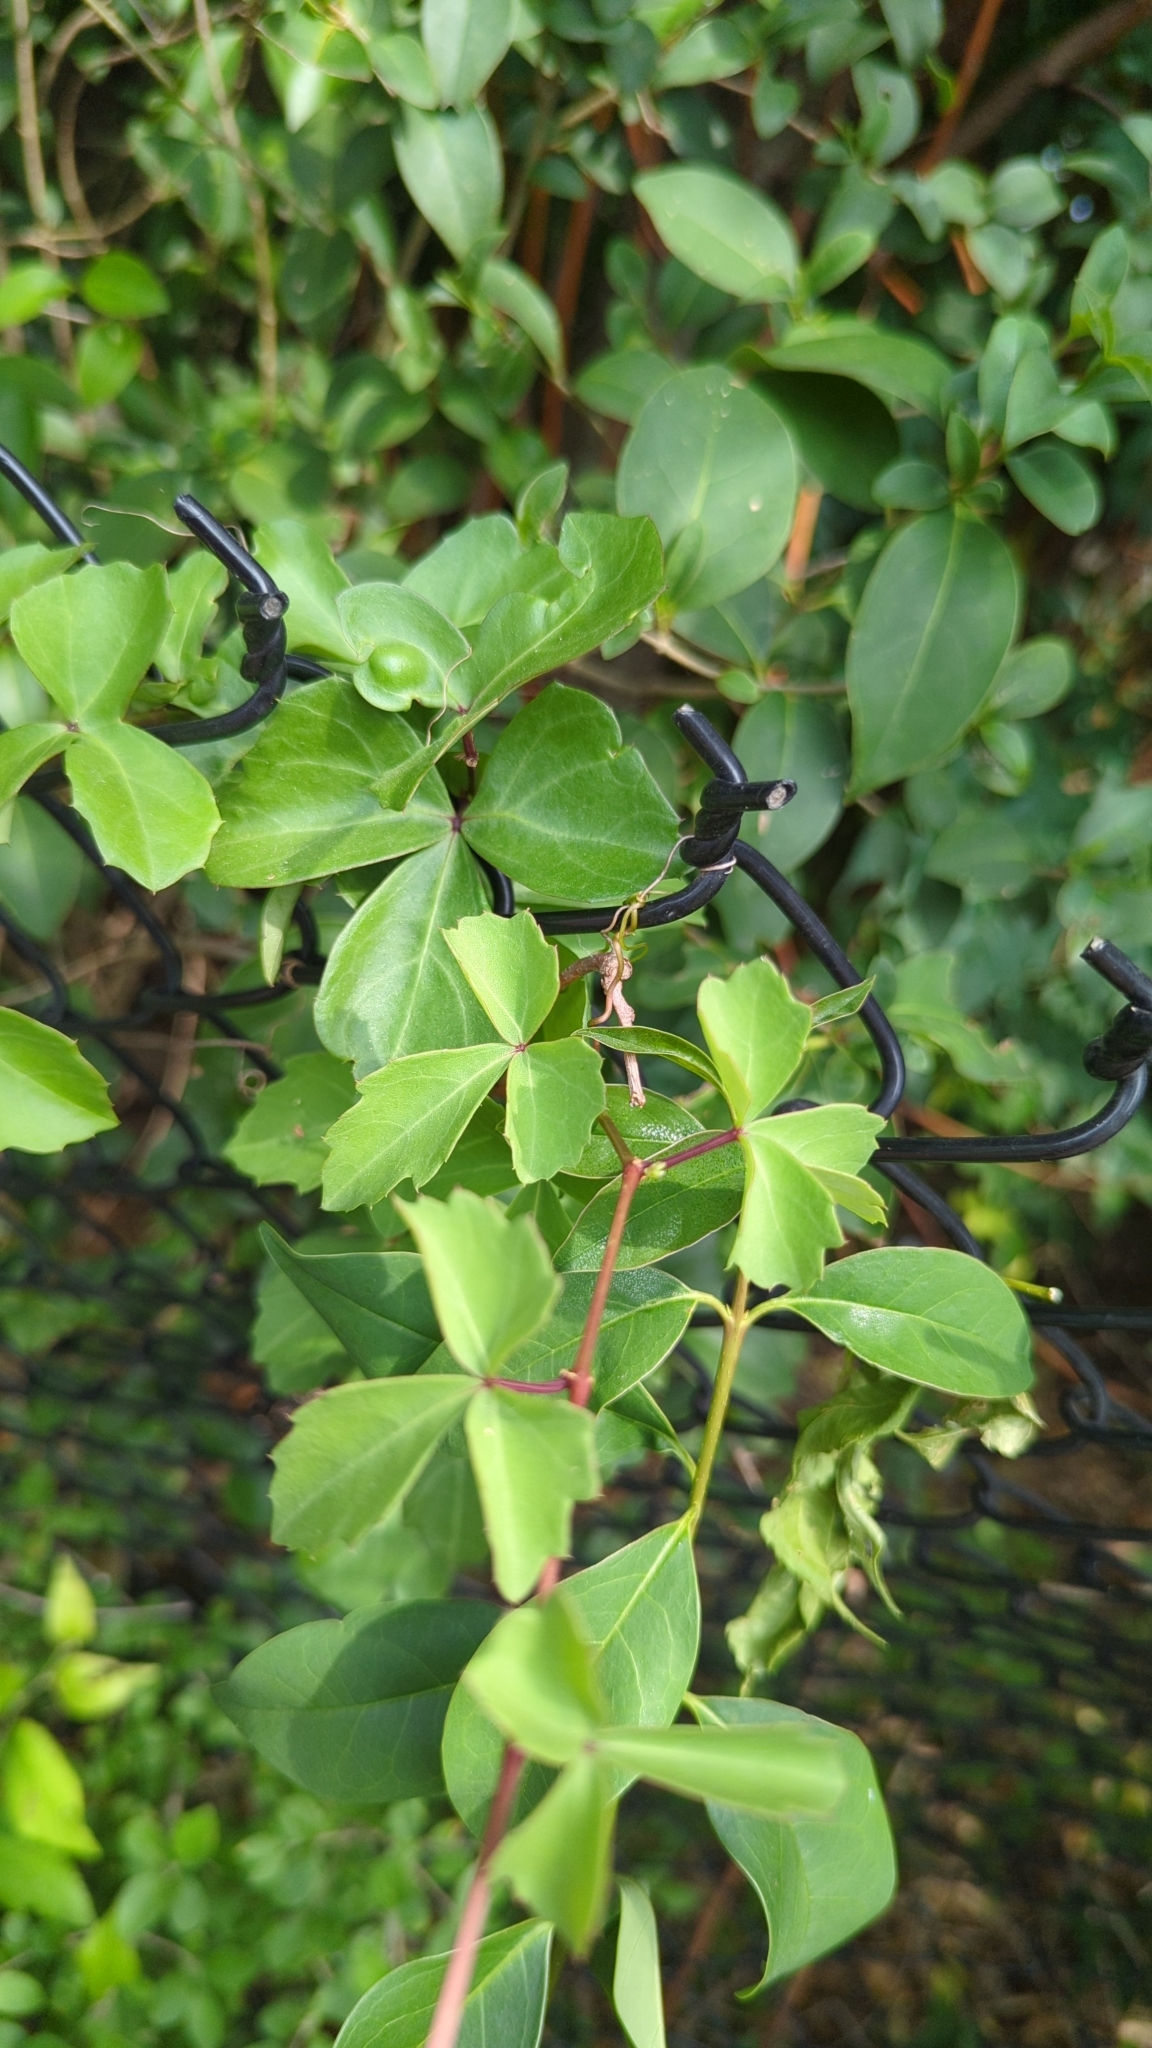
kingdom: Plantae
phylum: Tracheophyta
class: Magnoliopsida
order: Vitales
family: Vitaceae
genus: Cissus
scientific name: Cissus trifoliata
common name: Vine-sorrel
